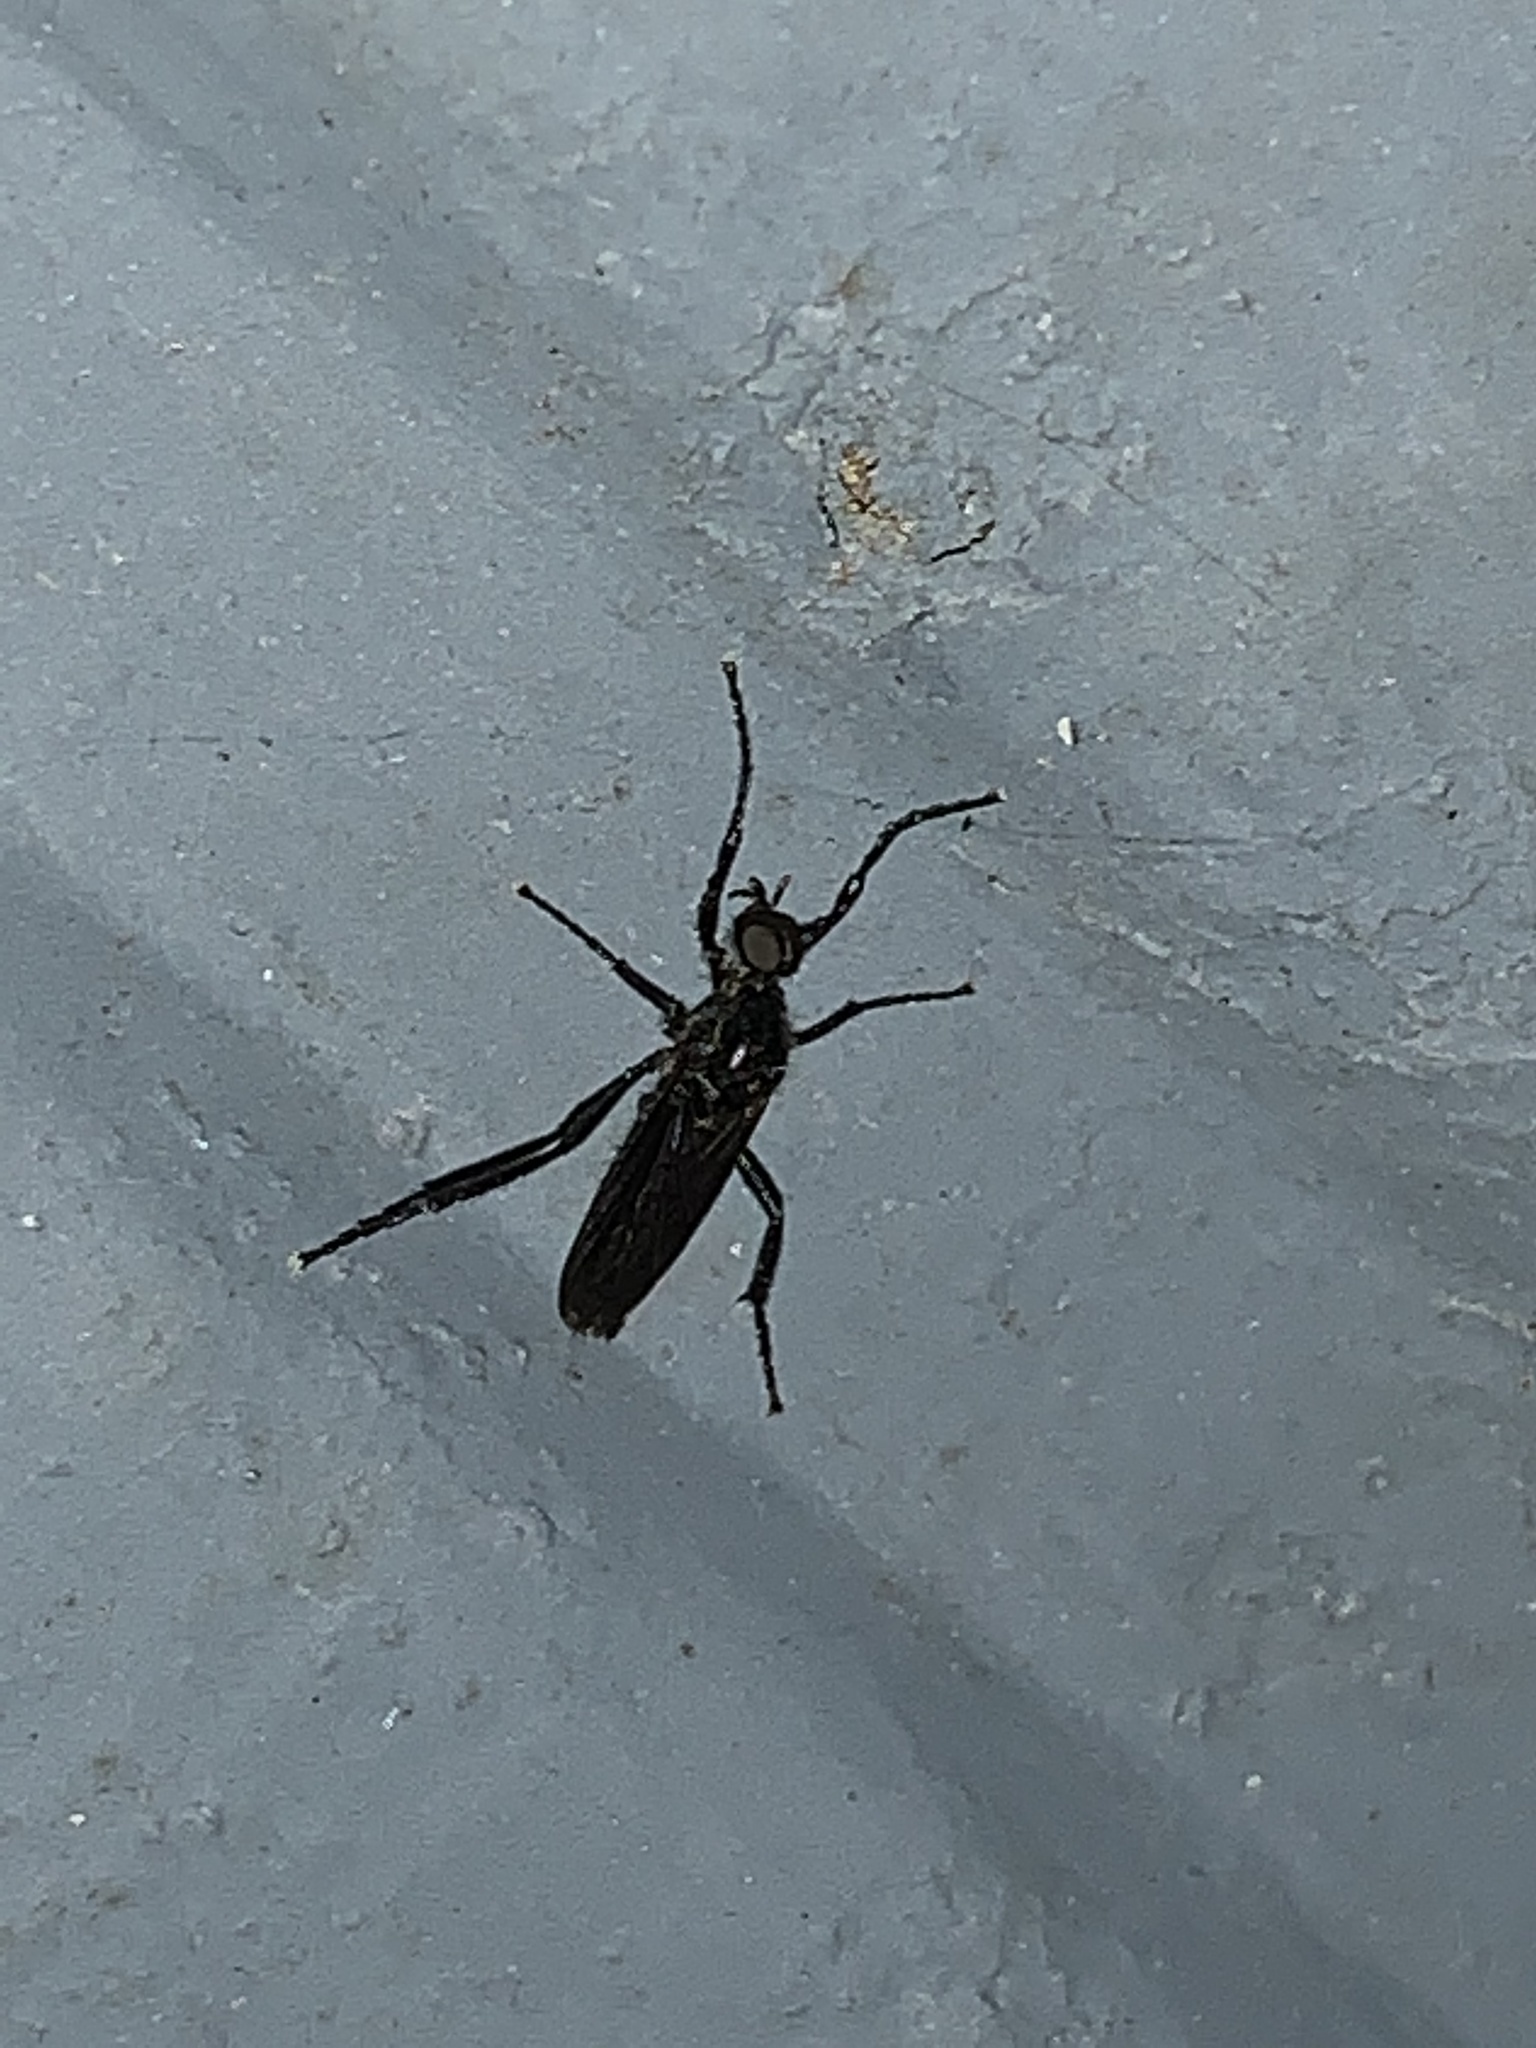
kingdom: Animalia
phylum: Arthropoda
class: Insecta
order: Diptera
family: Bibionidae
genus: Bibio
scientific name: Bibio superfluus
